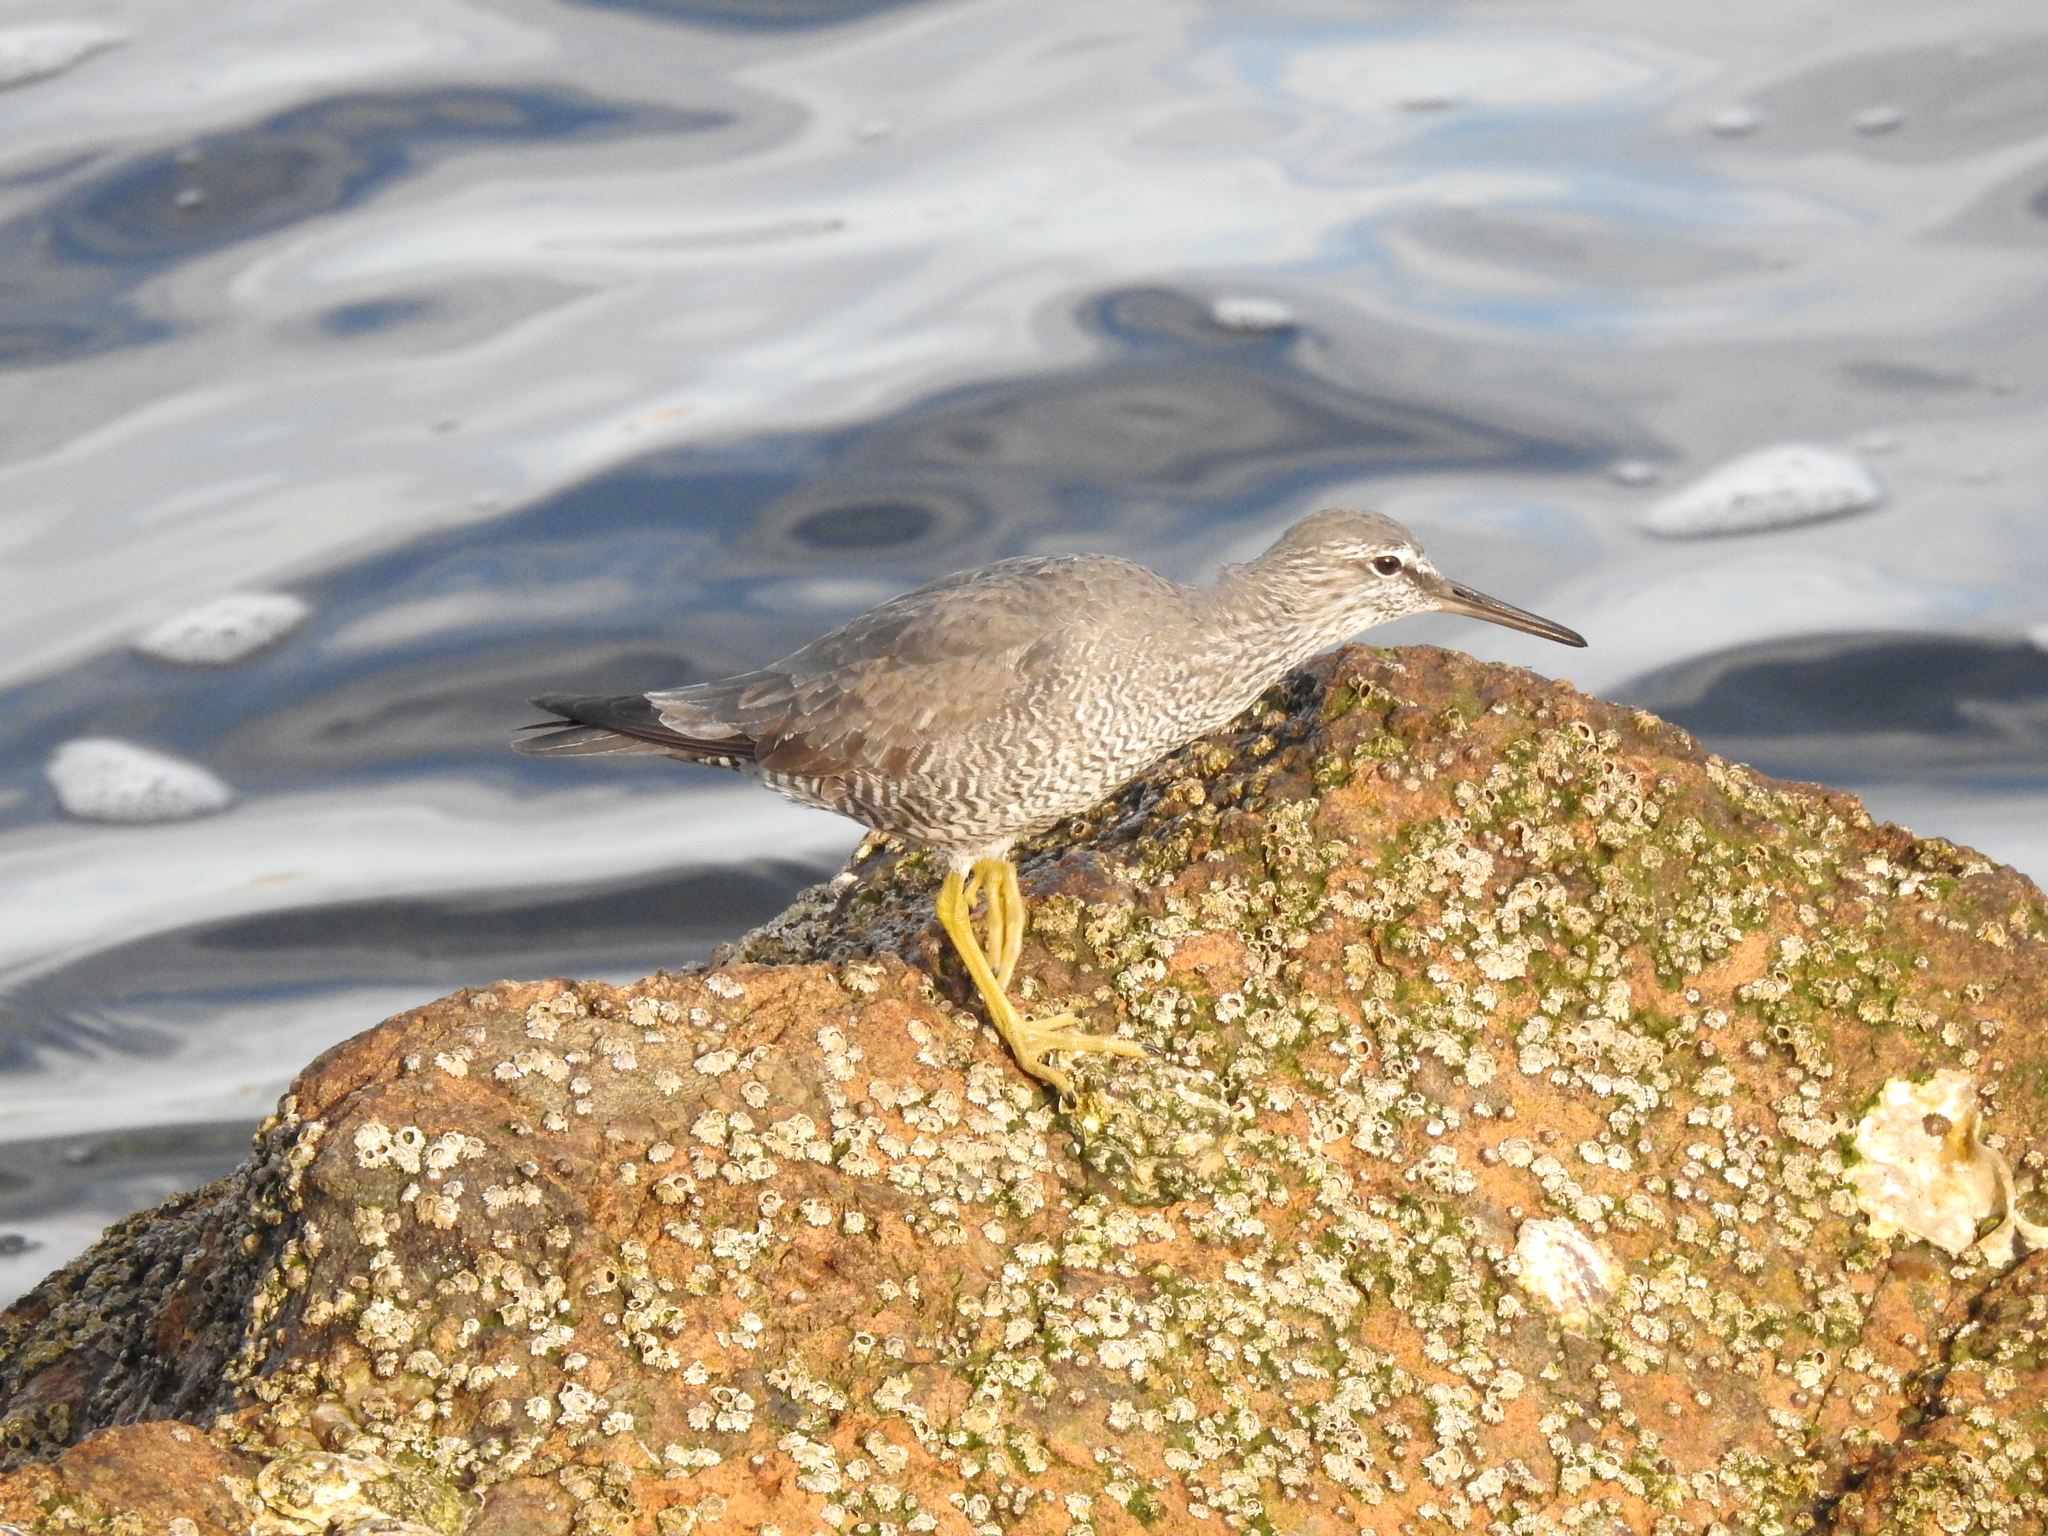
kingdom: Animalia
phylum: Chordata
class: Aves
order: Charadriiformes
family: Scolopacidae
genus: Tringa
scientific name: Tringa incana
